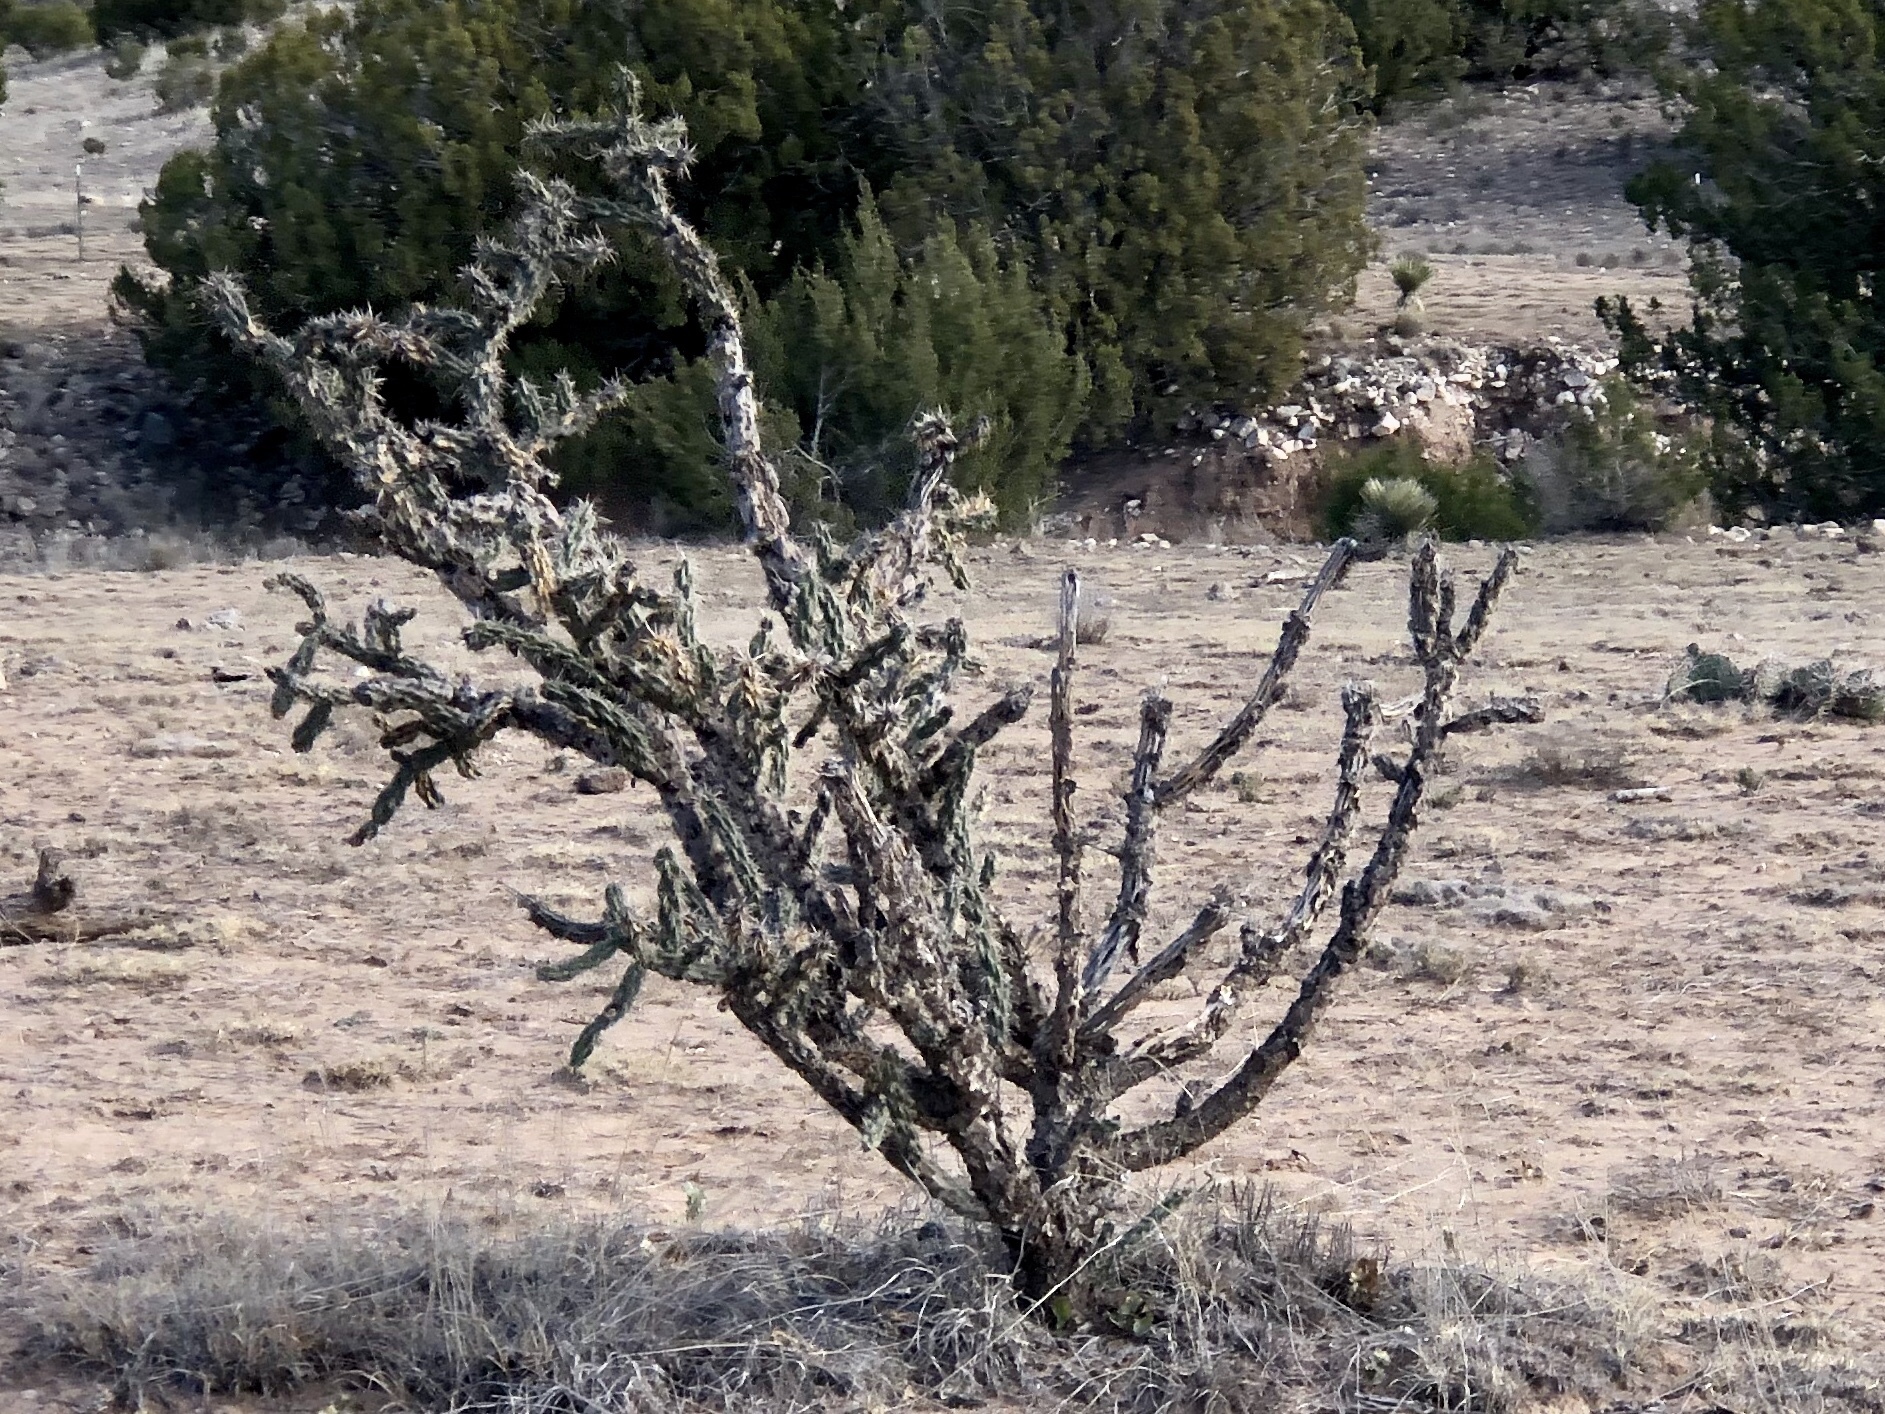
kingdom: Plantae
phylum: Tracheophyta
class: Magnoliopsida
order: Caryophyllales
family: Cactaceae
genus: Cylindropuntia
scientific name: Cylindropuntia imbricata
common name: Candelabrum cactus
